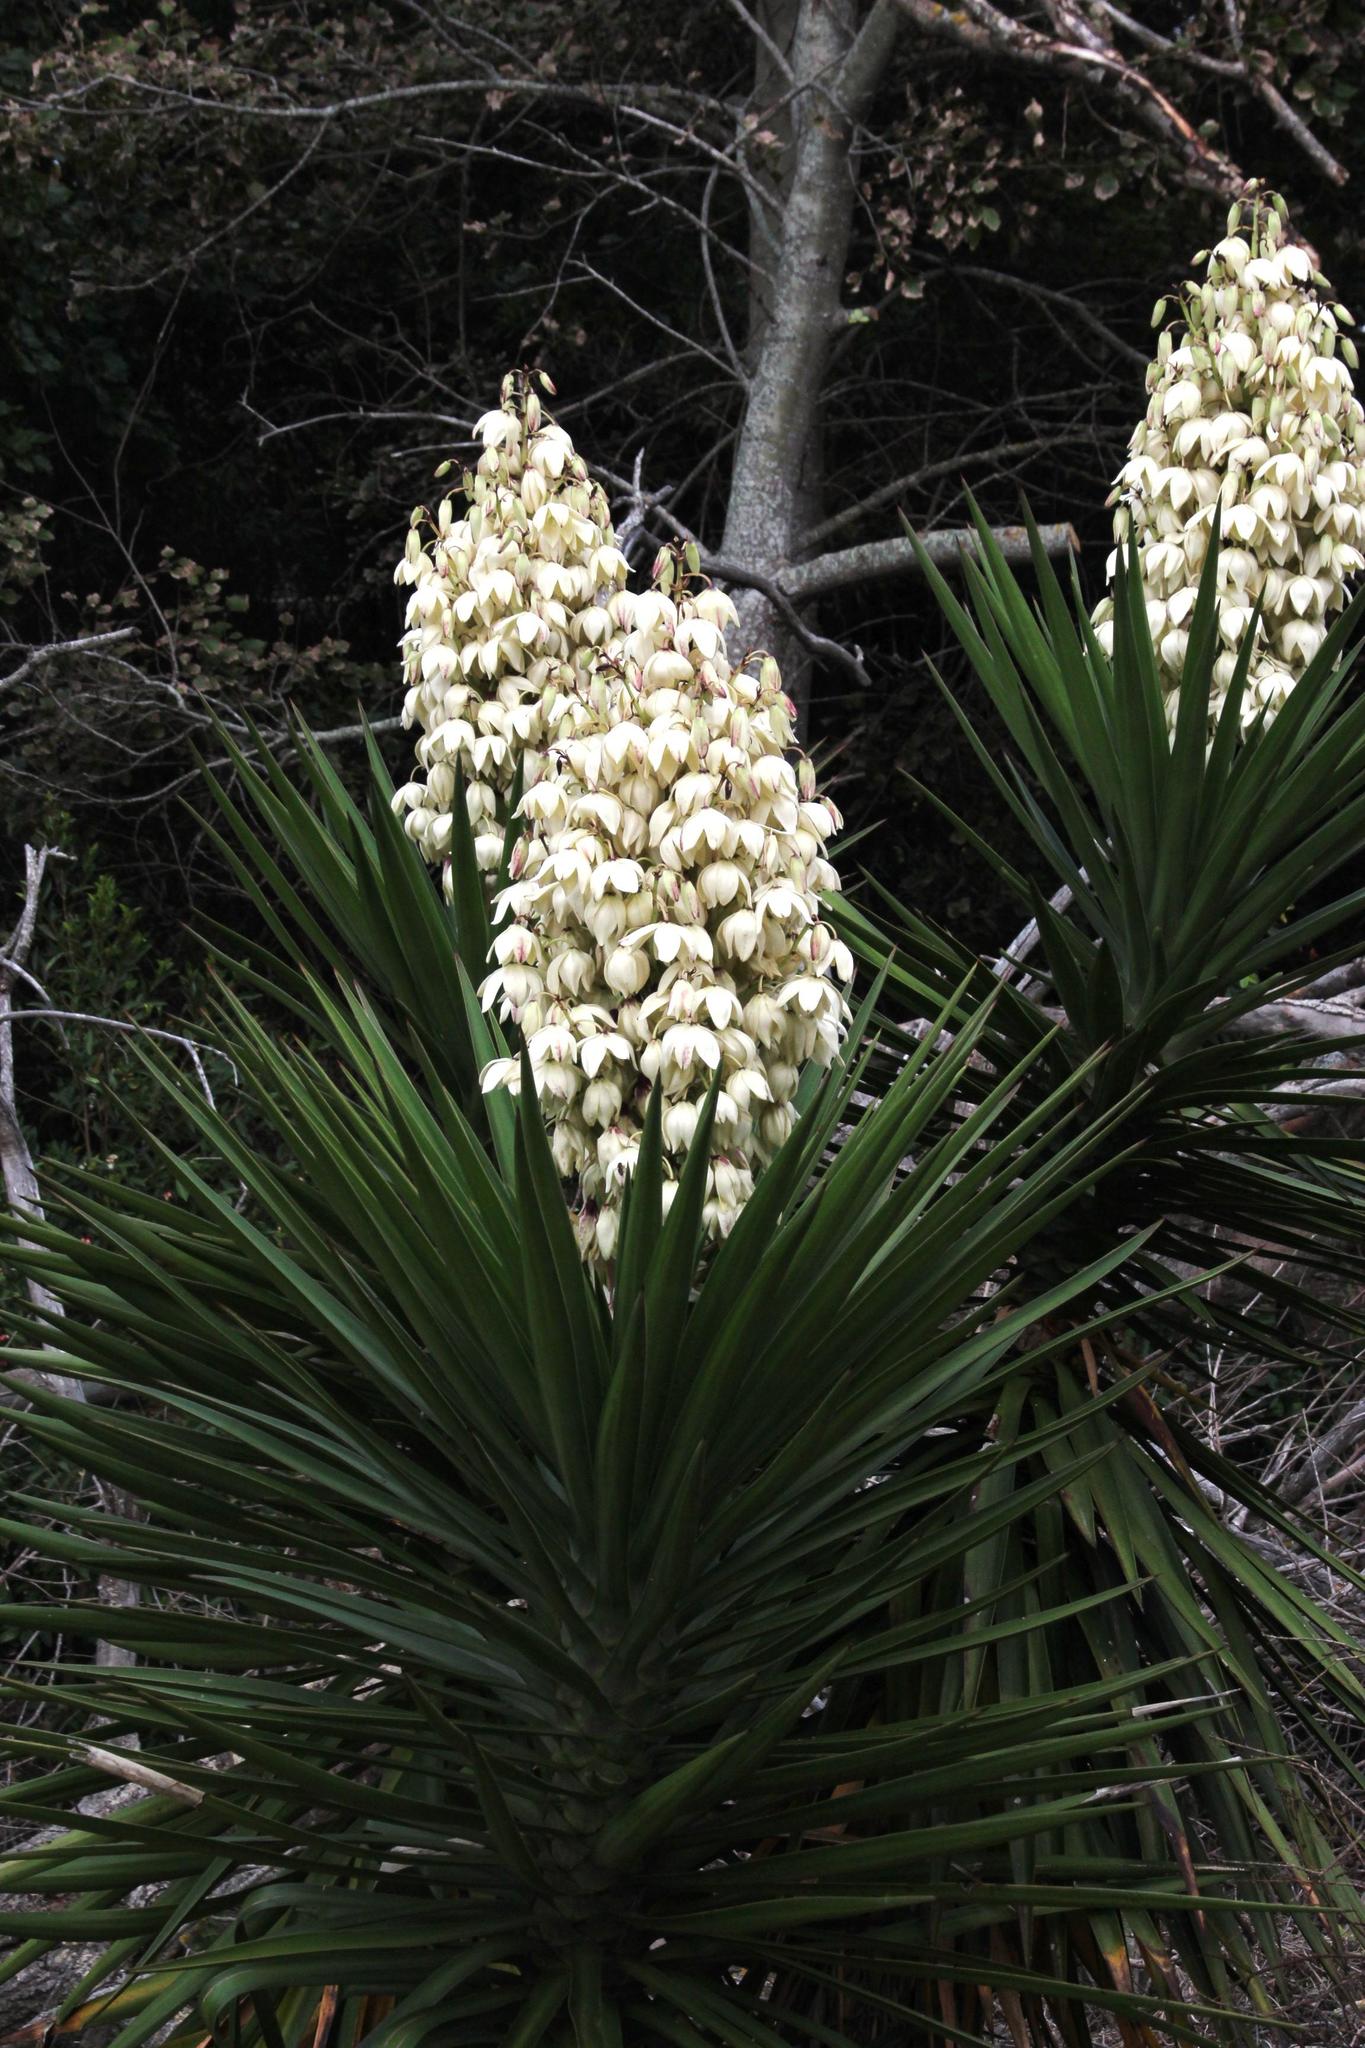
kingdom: Plantae
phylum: Tracheophyta
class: Liliopsida
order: Asparagales
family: Asparagaceae
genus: Yucca
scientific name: Yucca aloifolia
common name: Aloe yucca
